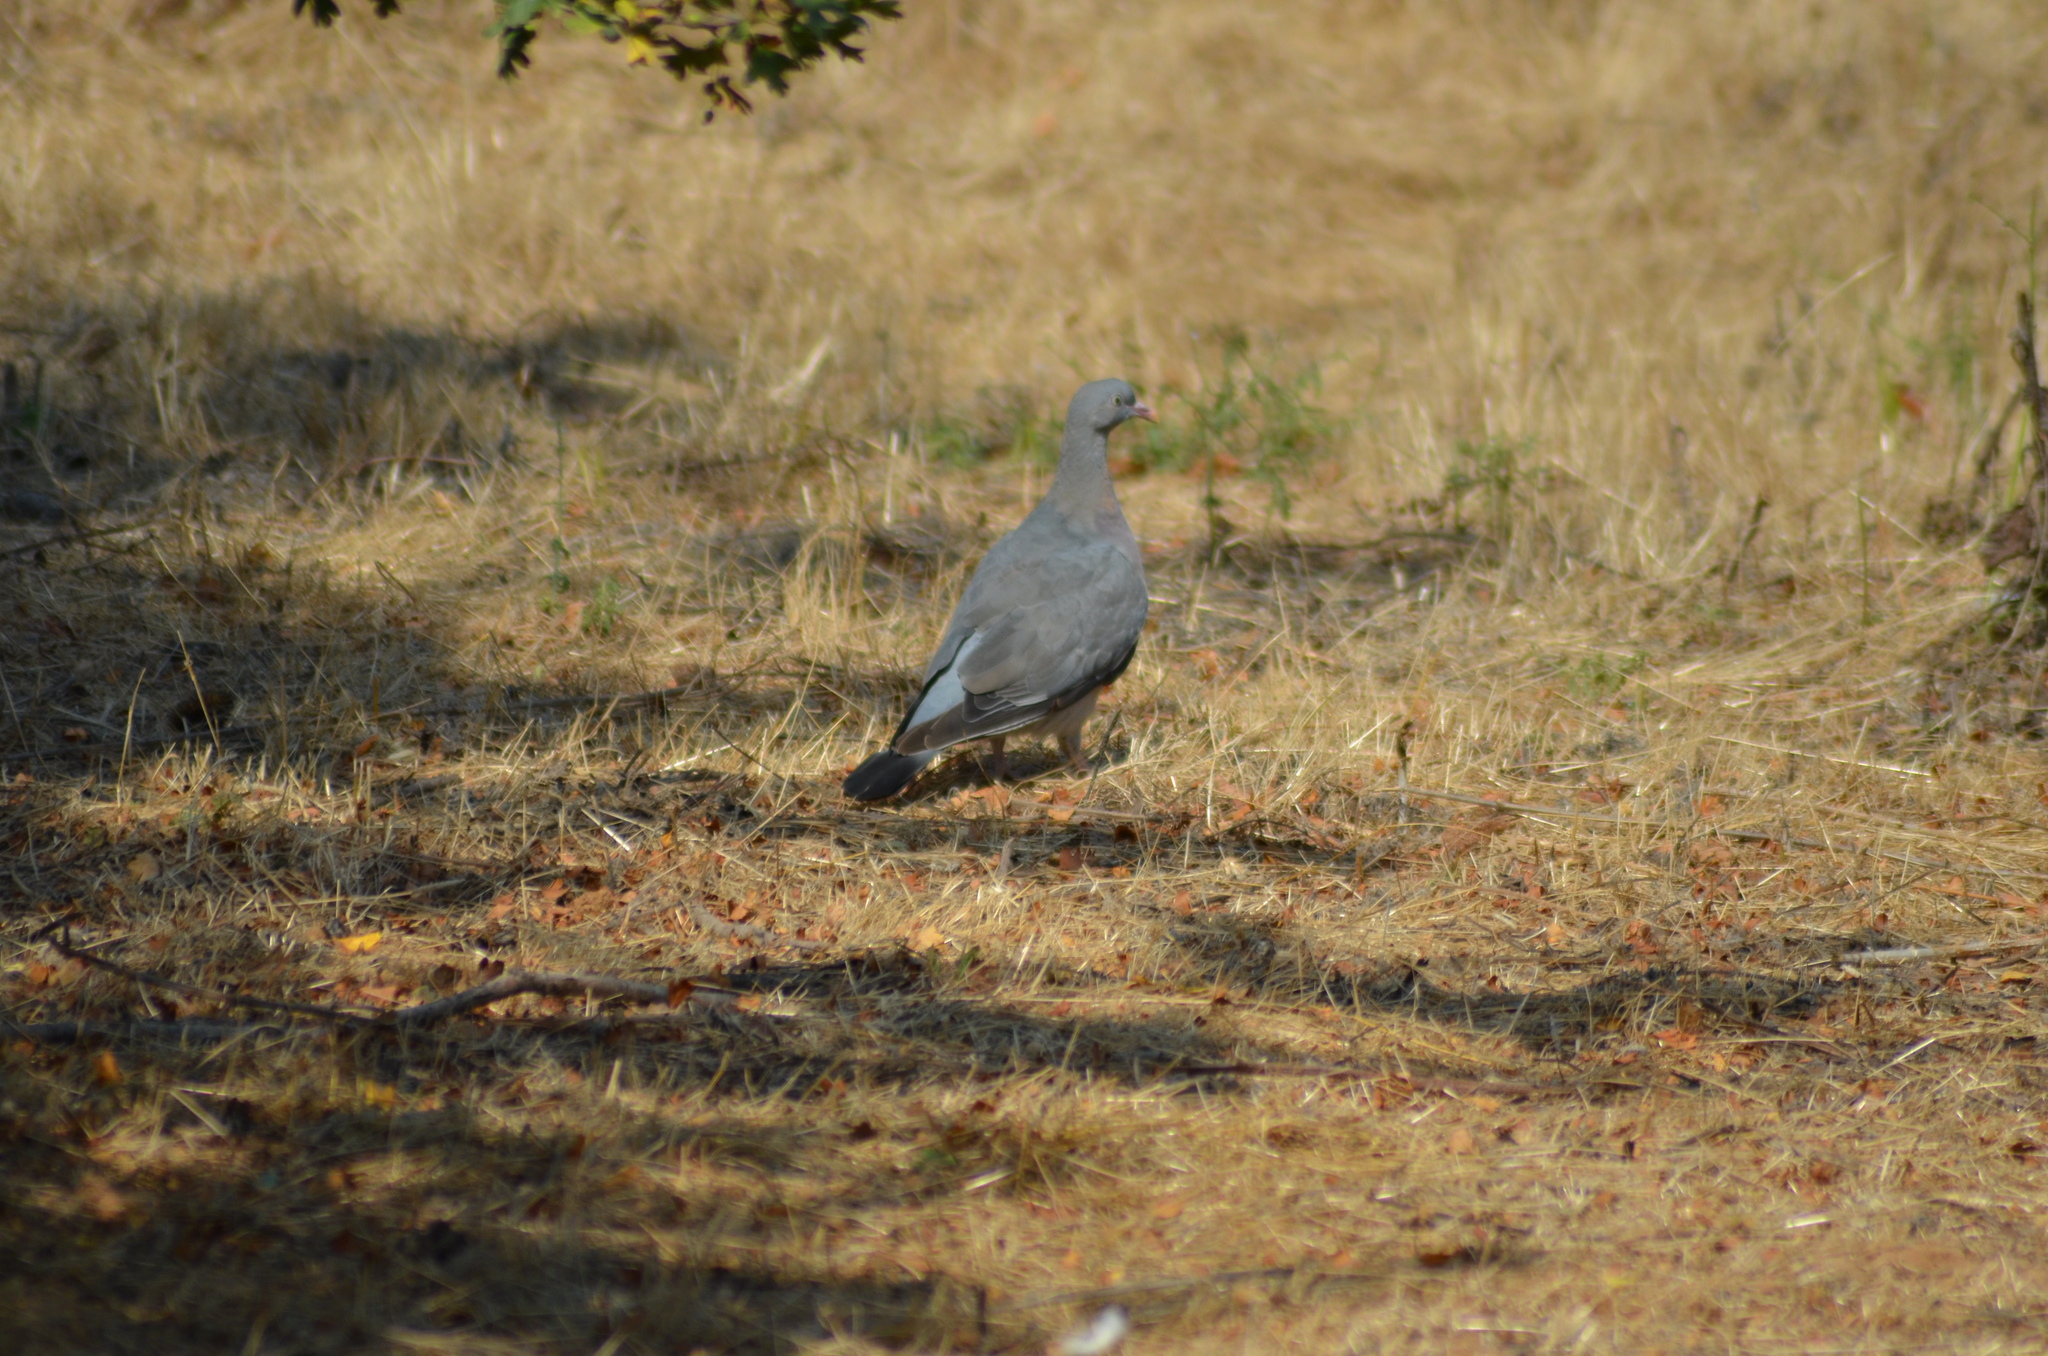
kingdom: Animalia
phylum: Chordata
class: Aves
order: Columbiformes
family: Columbidae
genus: Columba
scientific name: Columba palumbus
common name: Common wood pigeon
